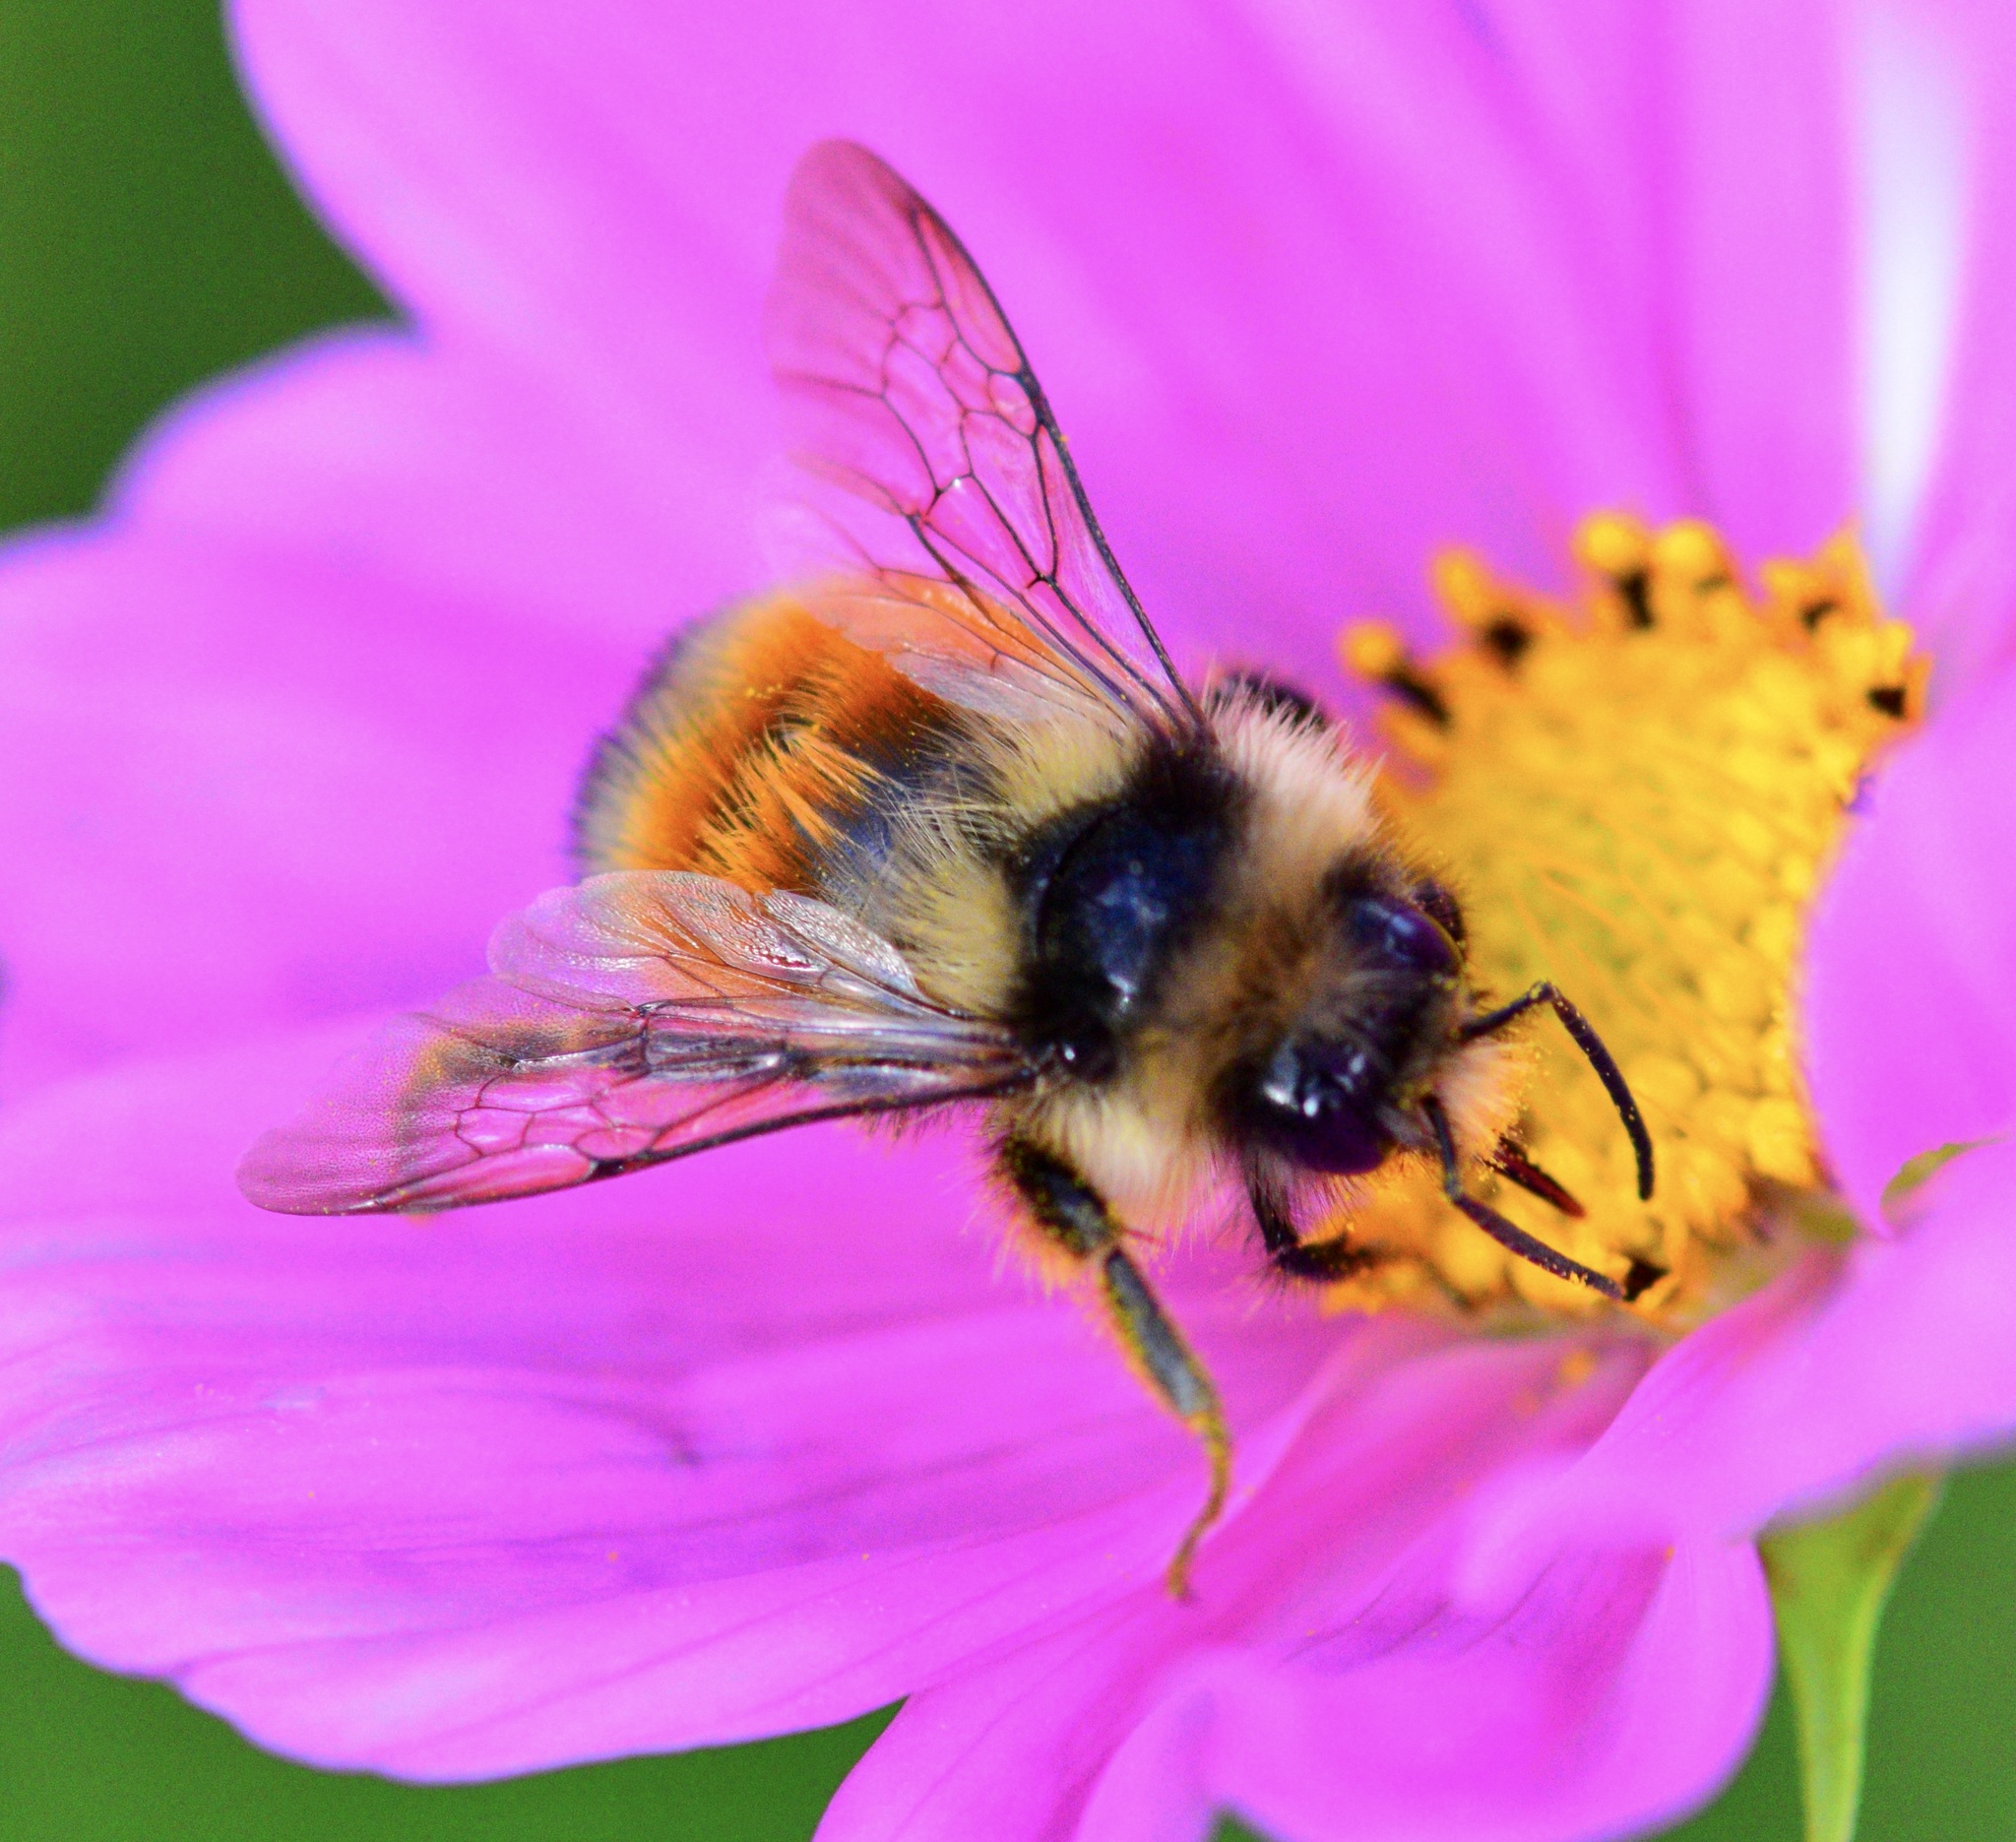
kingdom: Animalia
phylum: Arthropoda
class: Insecta
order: Hymenoptera
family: Apidae
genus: Bombus
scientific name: Bombus ternarius
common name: Tri-colored bumble bee
